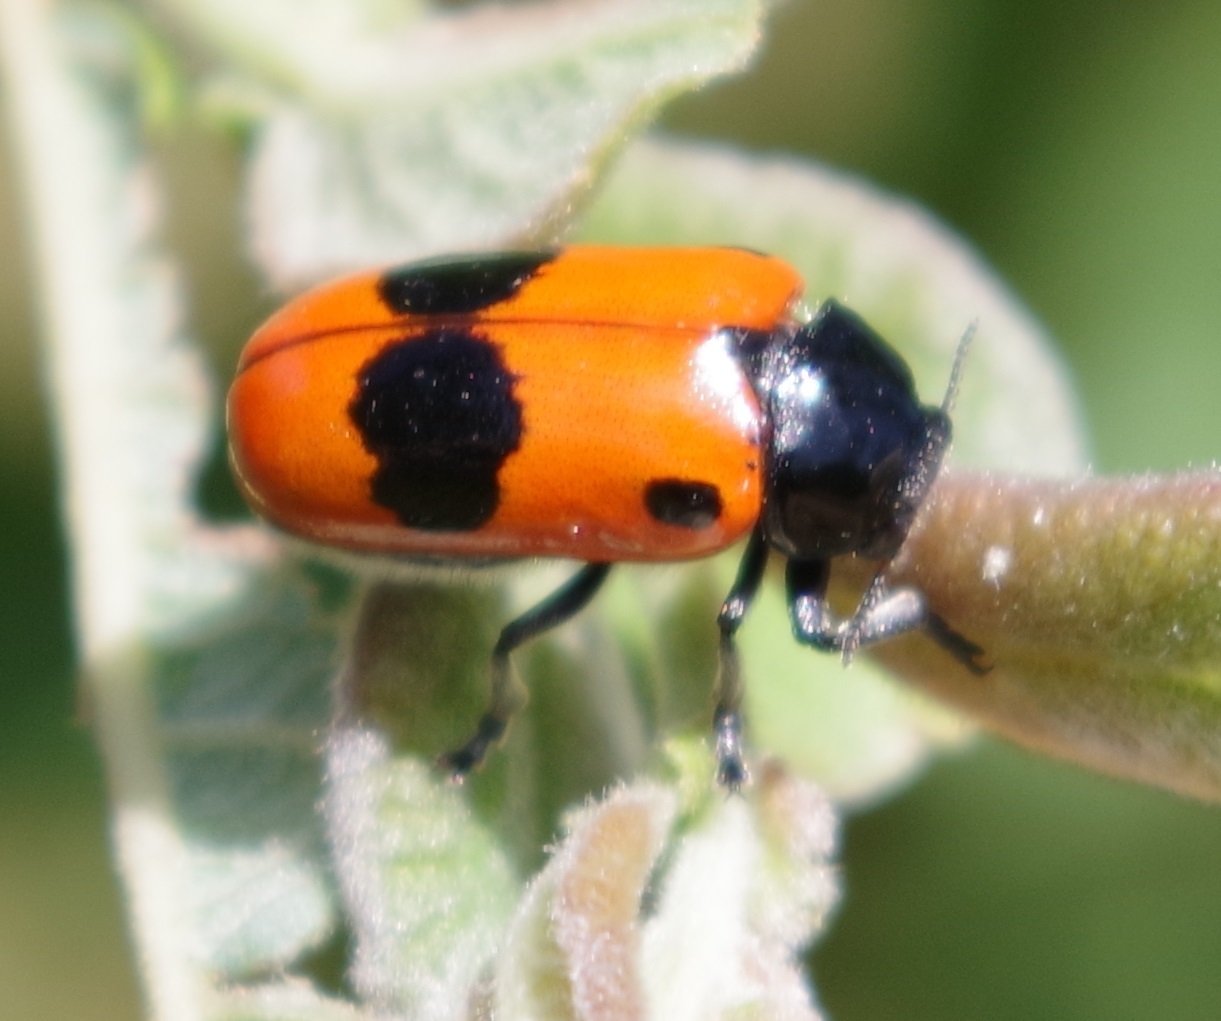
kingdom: Animalia
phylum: Arthropoda
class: Insecta
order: Coleoptera
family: Chrysomelidae
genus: Clytra
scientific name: Clytra laeviuscula
